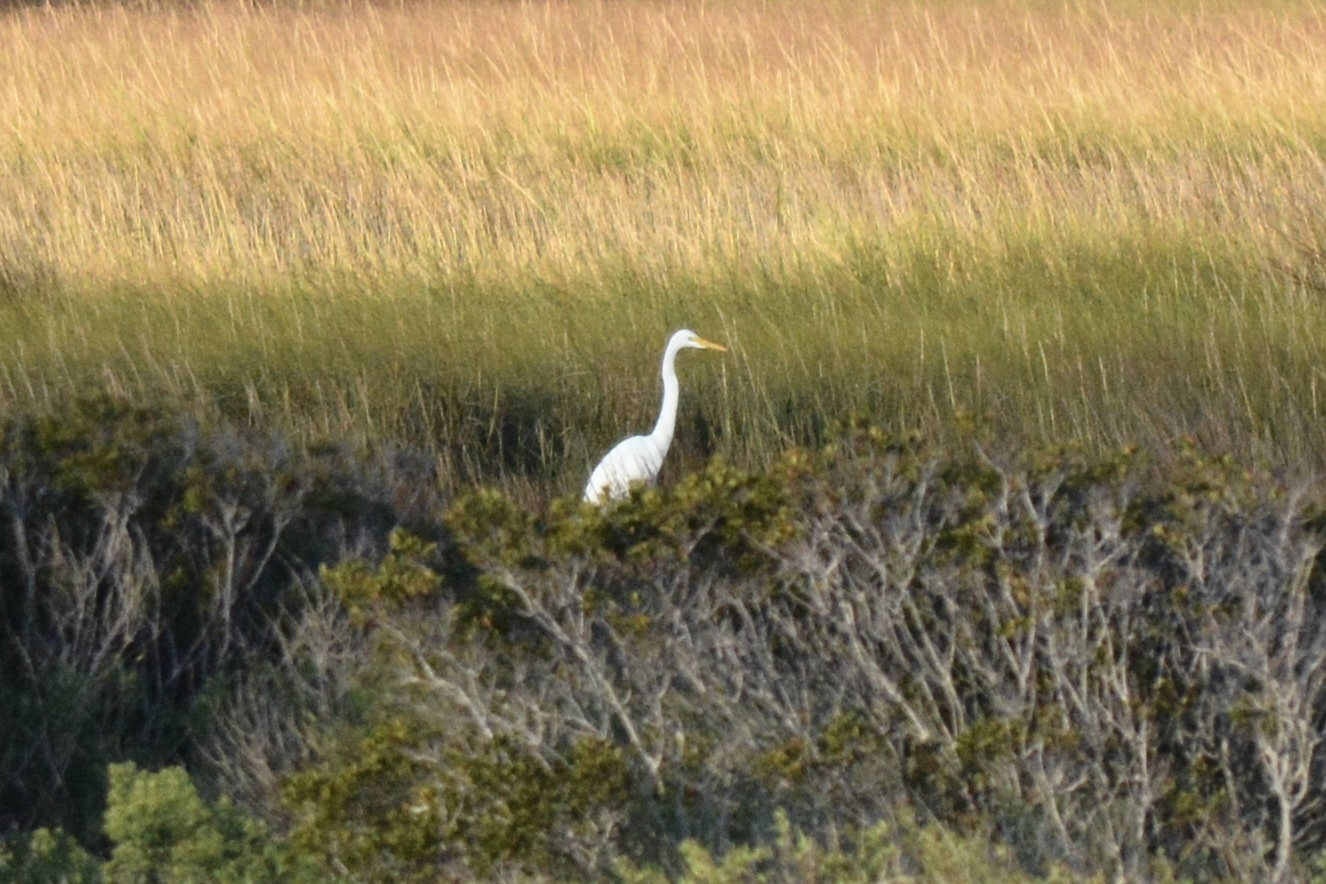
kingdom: Animalia
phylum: Chordata
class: Aves
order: Pelecaniformes
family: Ardeidae
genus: Ardea
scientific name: Ardea alba
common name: Great egret
